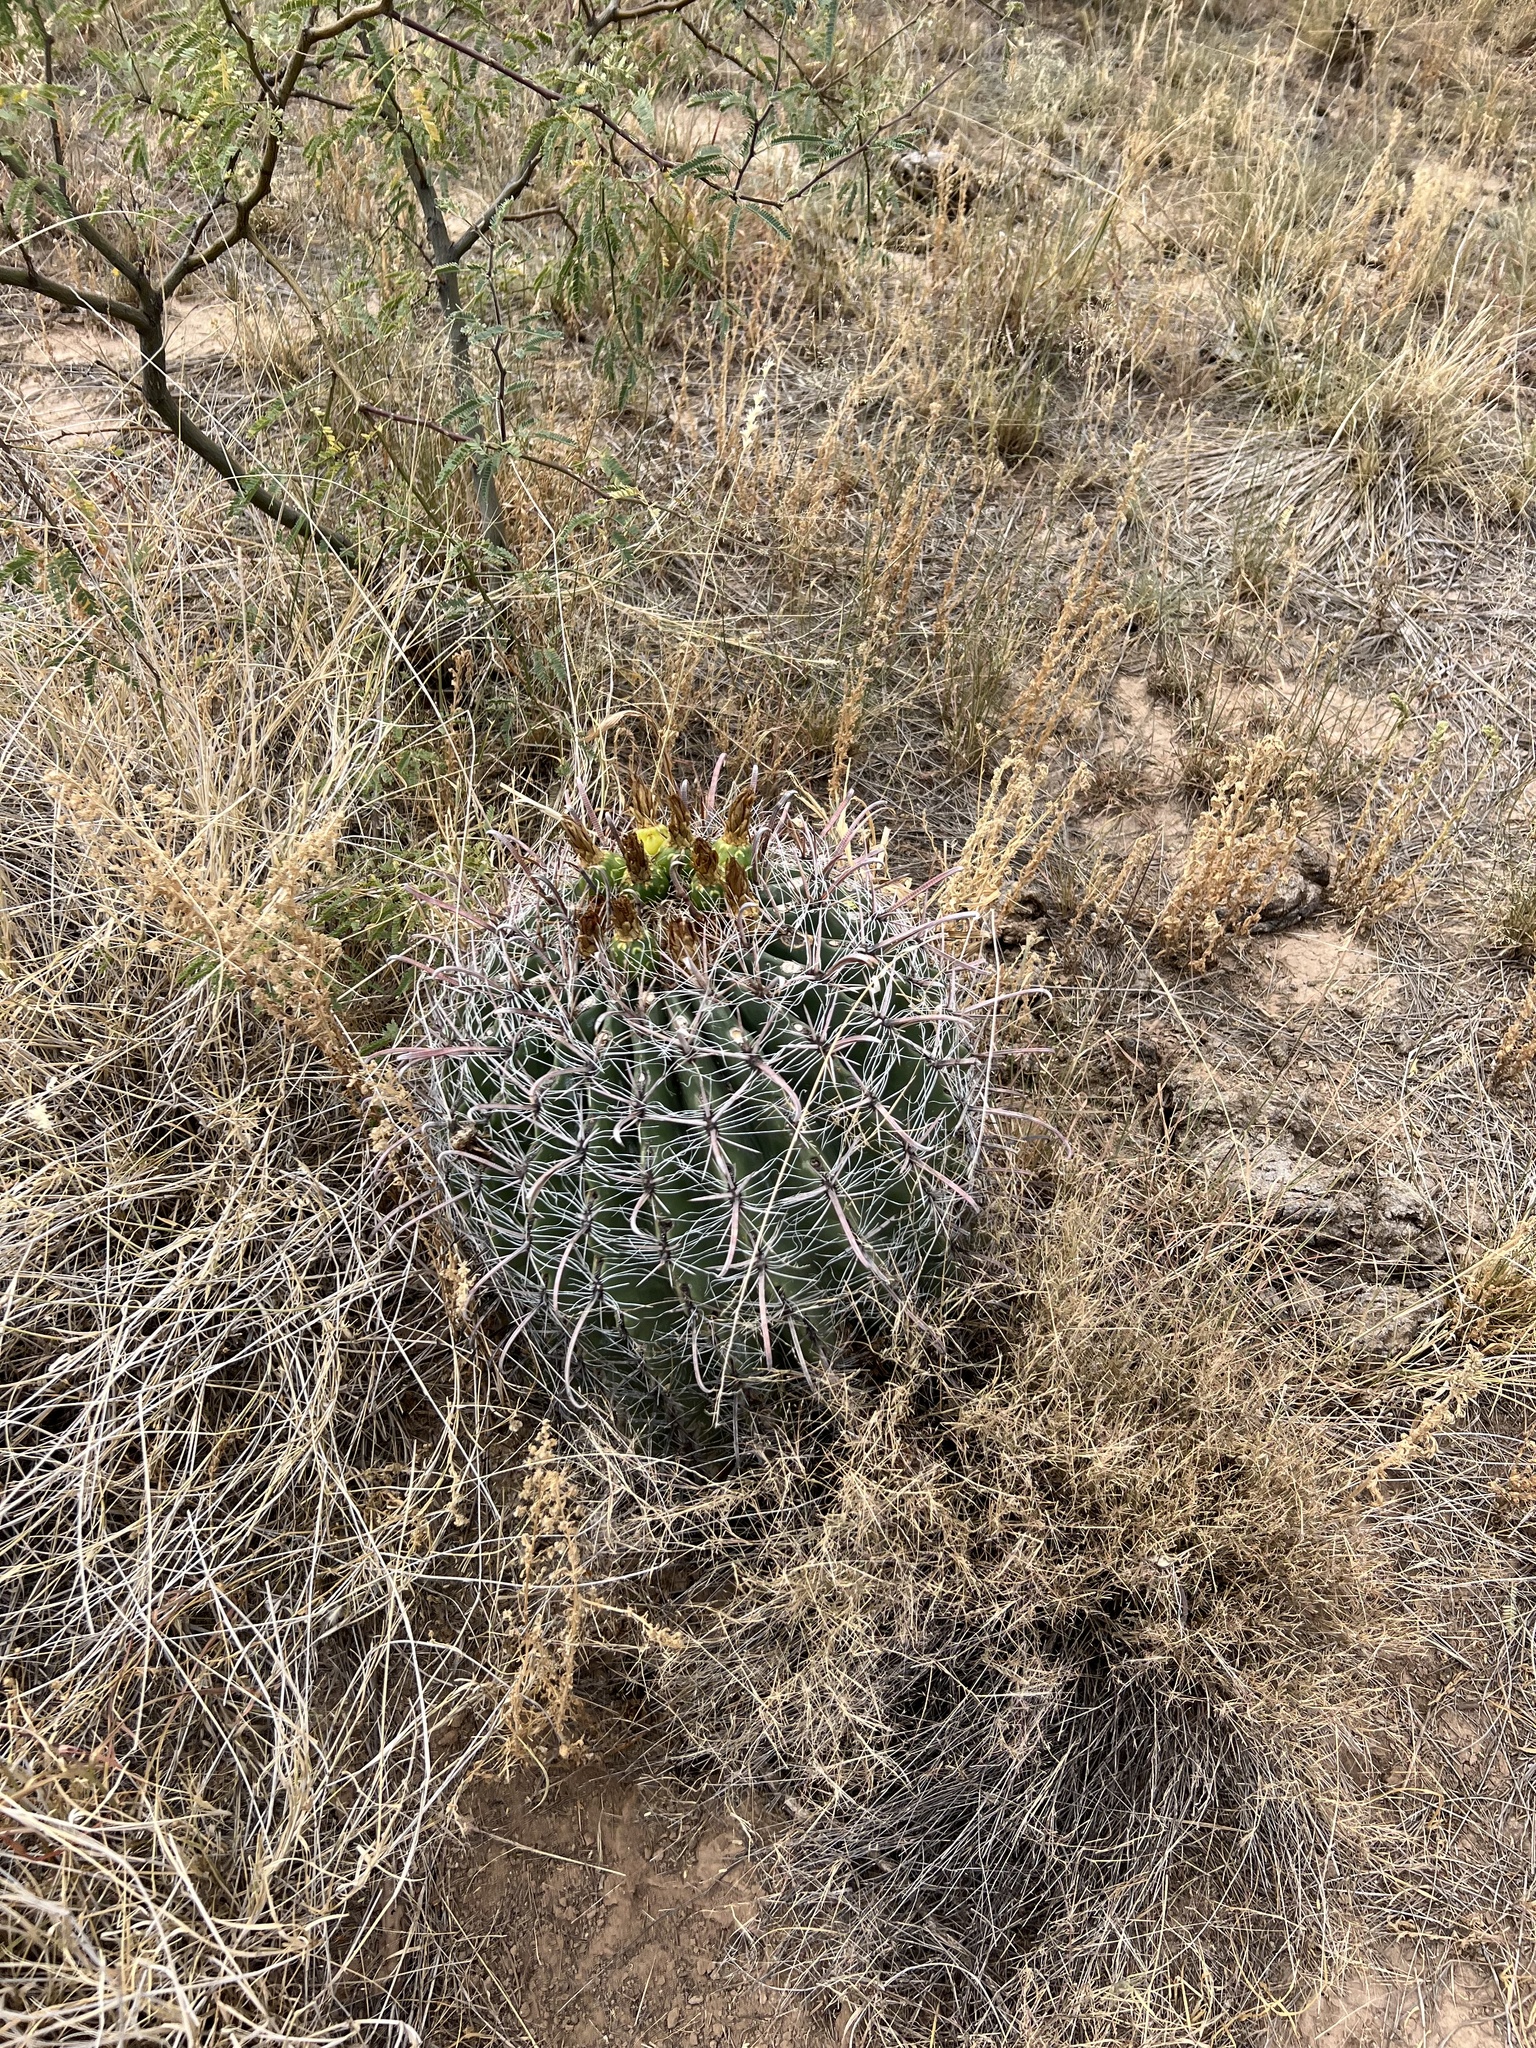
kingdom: Plantae
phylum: Tracheophyta
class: Magnoliopsida
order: Caryophyllales
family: Cactaceae
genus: Ferocactus
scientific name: Ferocactus wislizeni
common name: Candy barrel cactus
